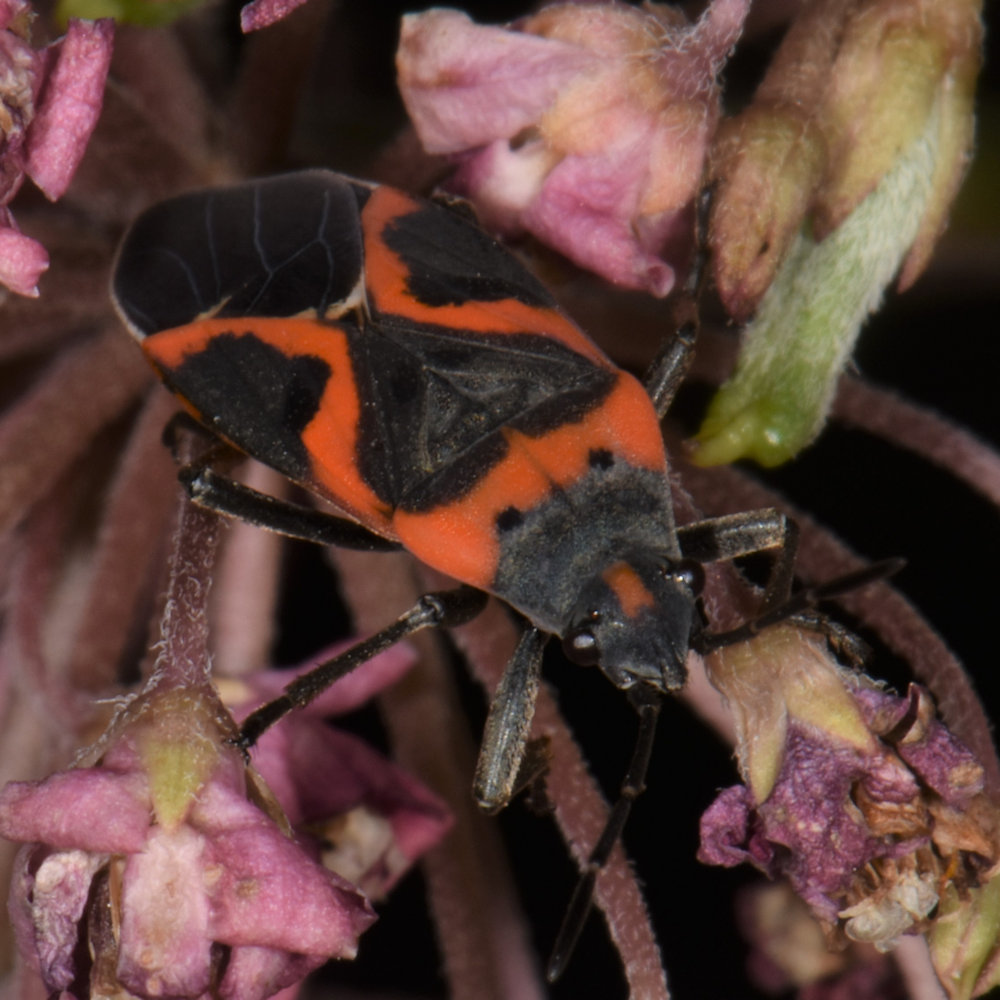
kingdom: Animalia
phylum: Arthropoda
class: Insecta
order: Hemiptera
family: Lygaeidae
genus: Lygaeus
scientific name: Lygaeus kalmii
